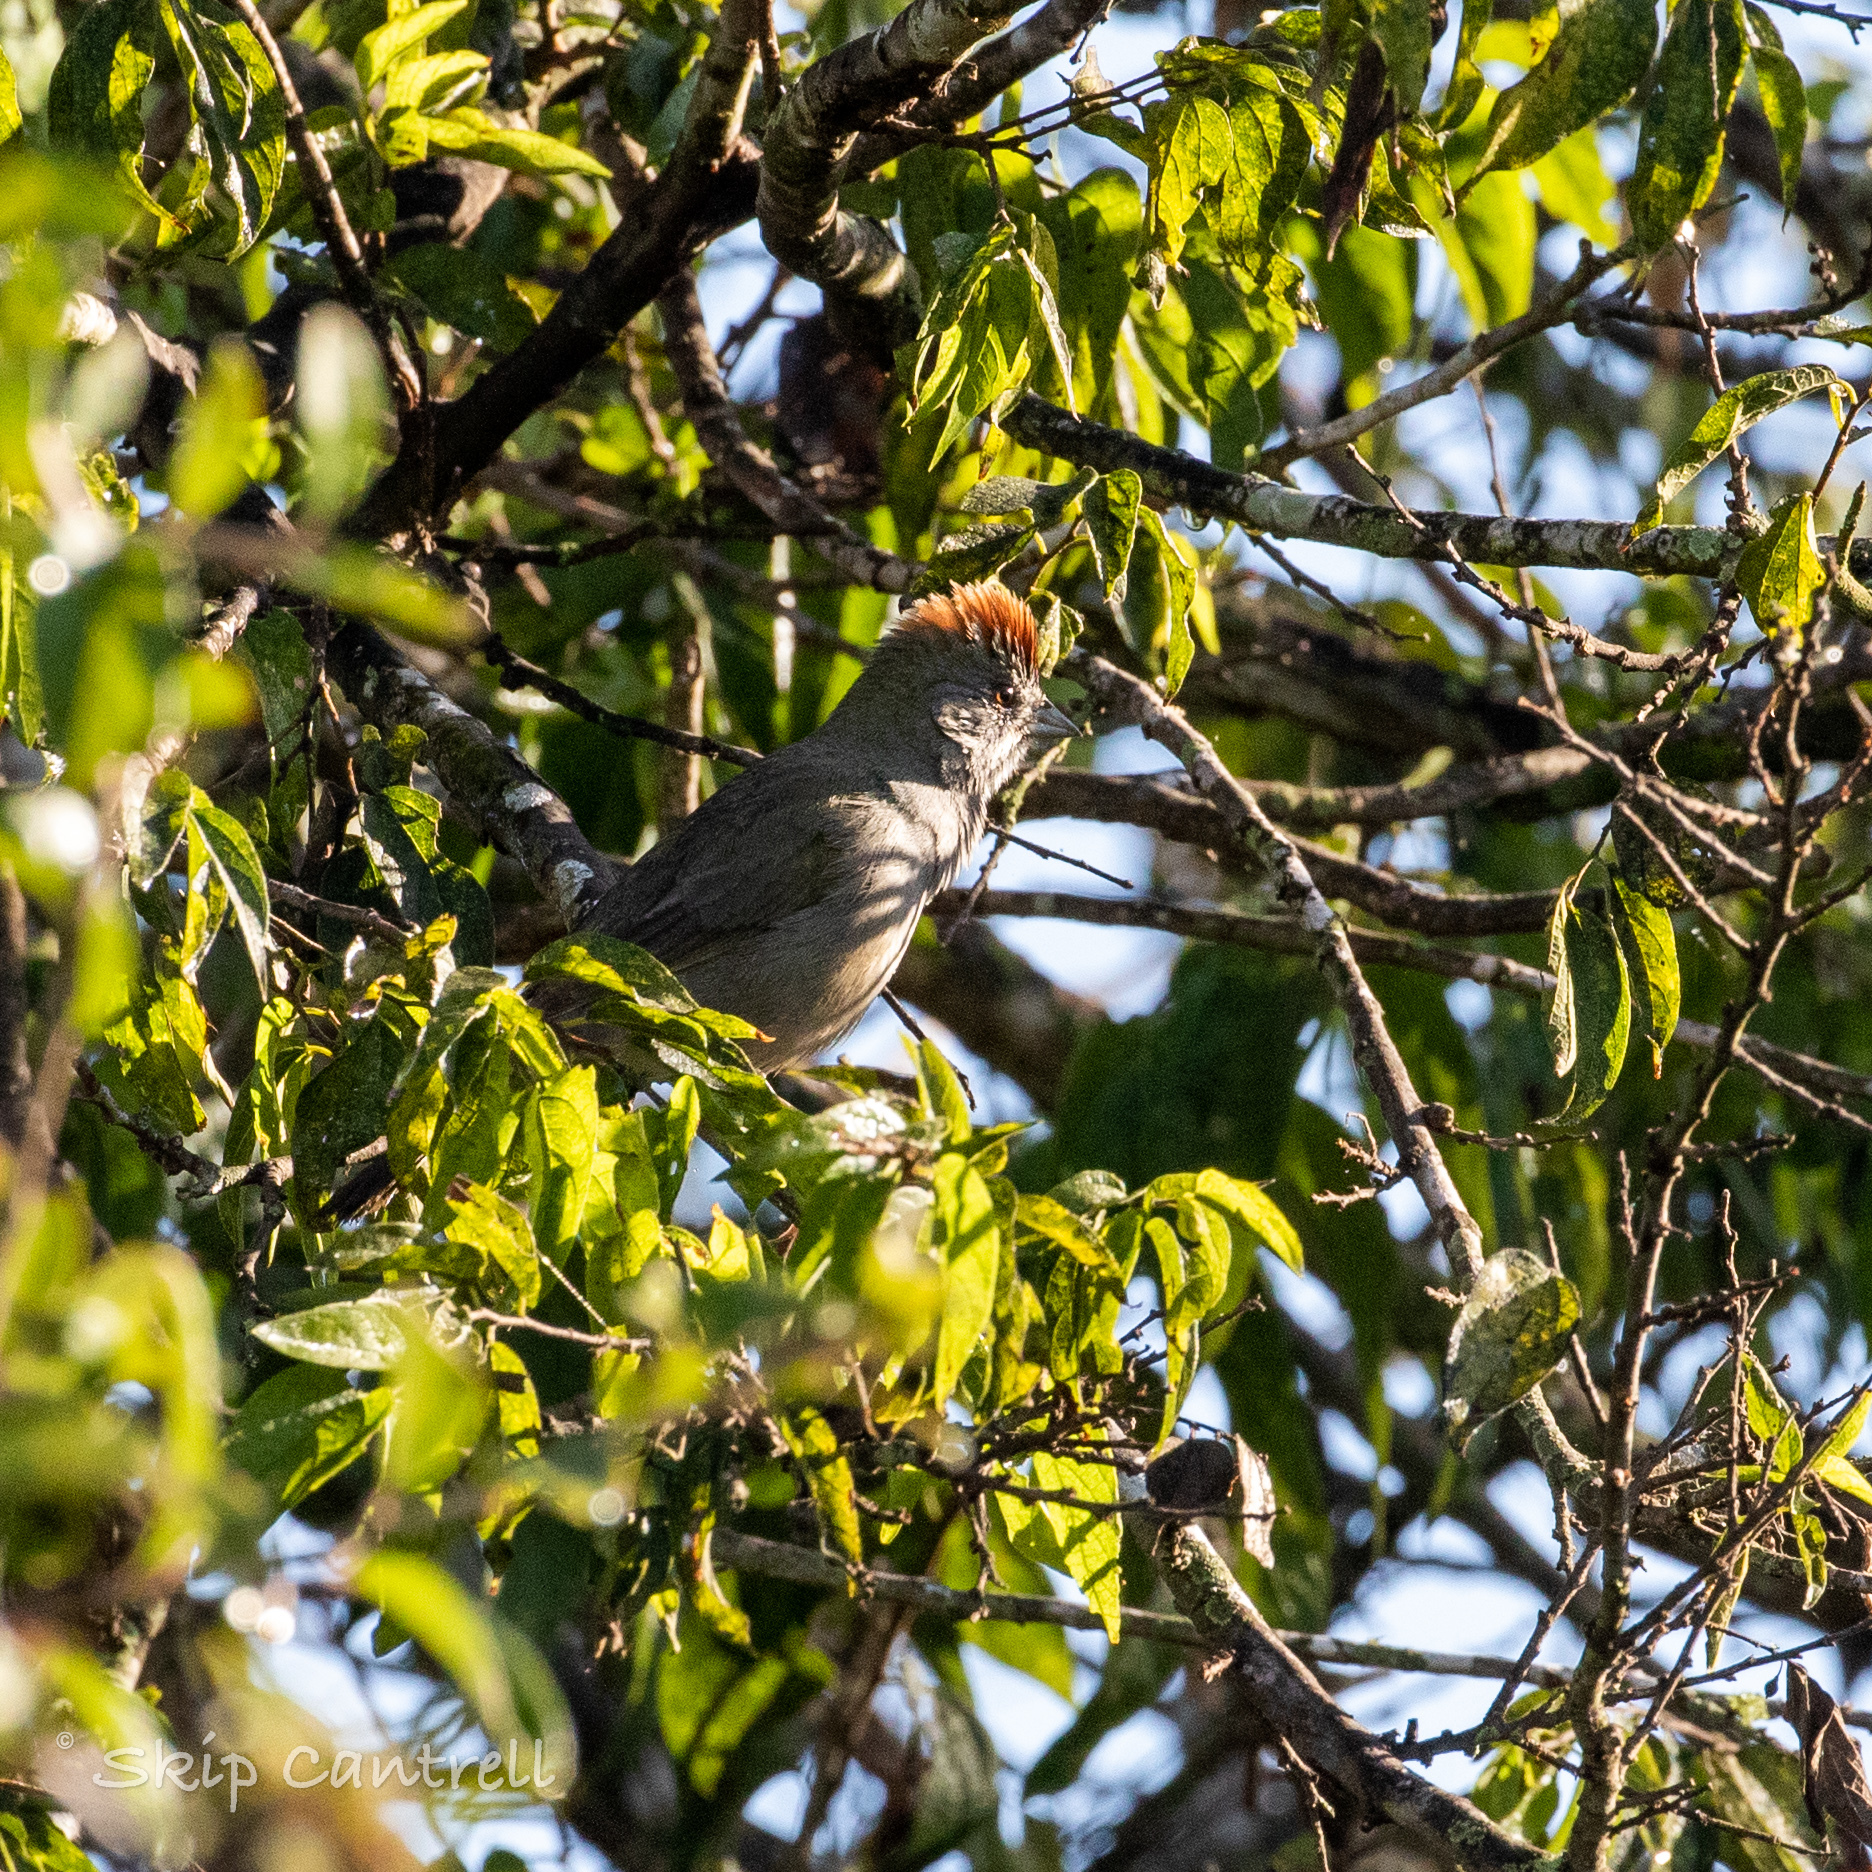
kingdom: Animalia
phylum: Chordata
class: Aves
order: Passeriformes
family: Passerellidae
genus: Pipilo
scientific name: Pipilo chlorurus
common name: Green-tailed towhee
